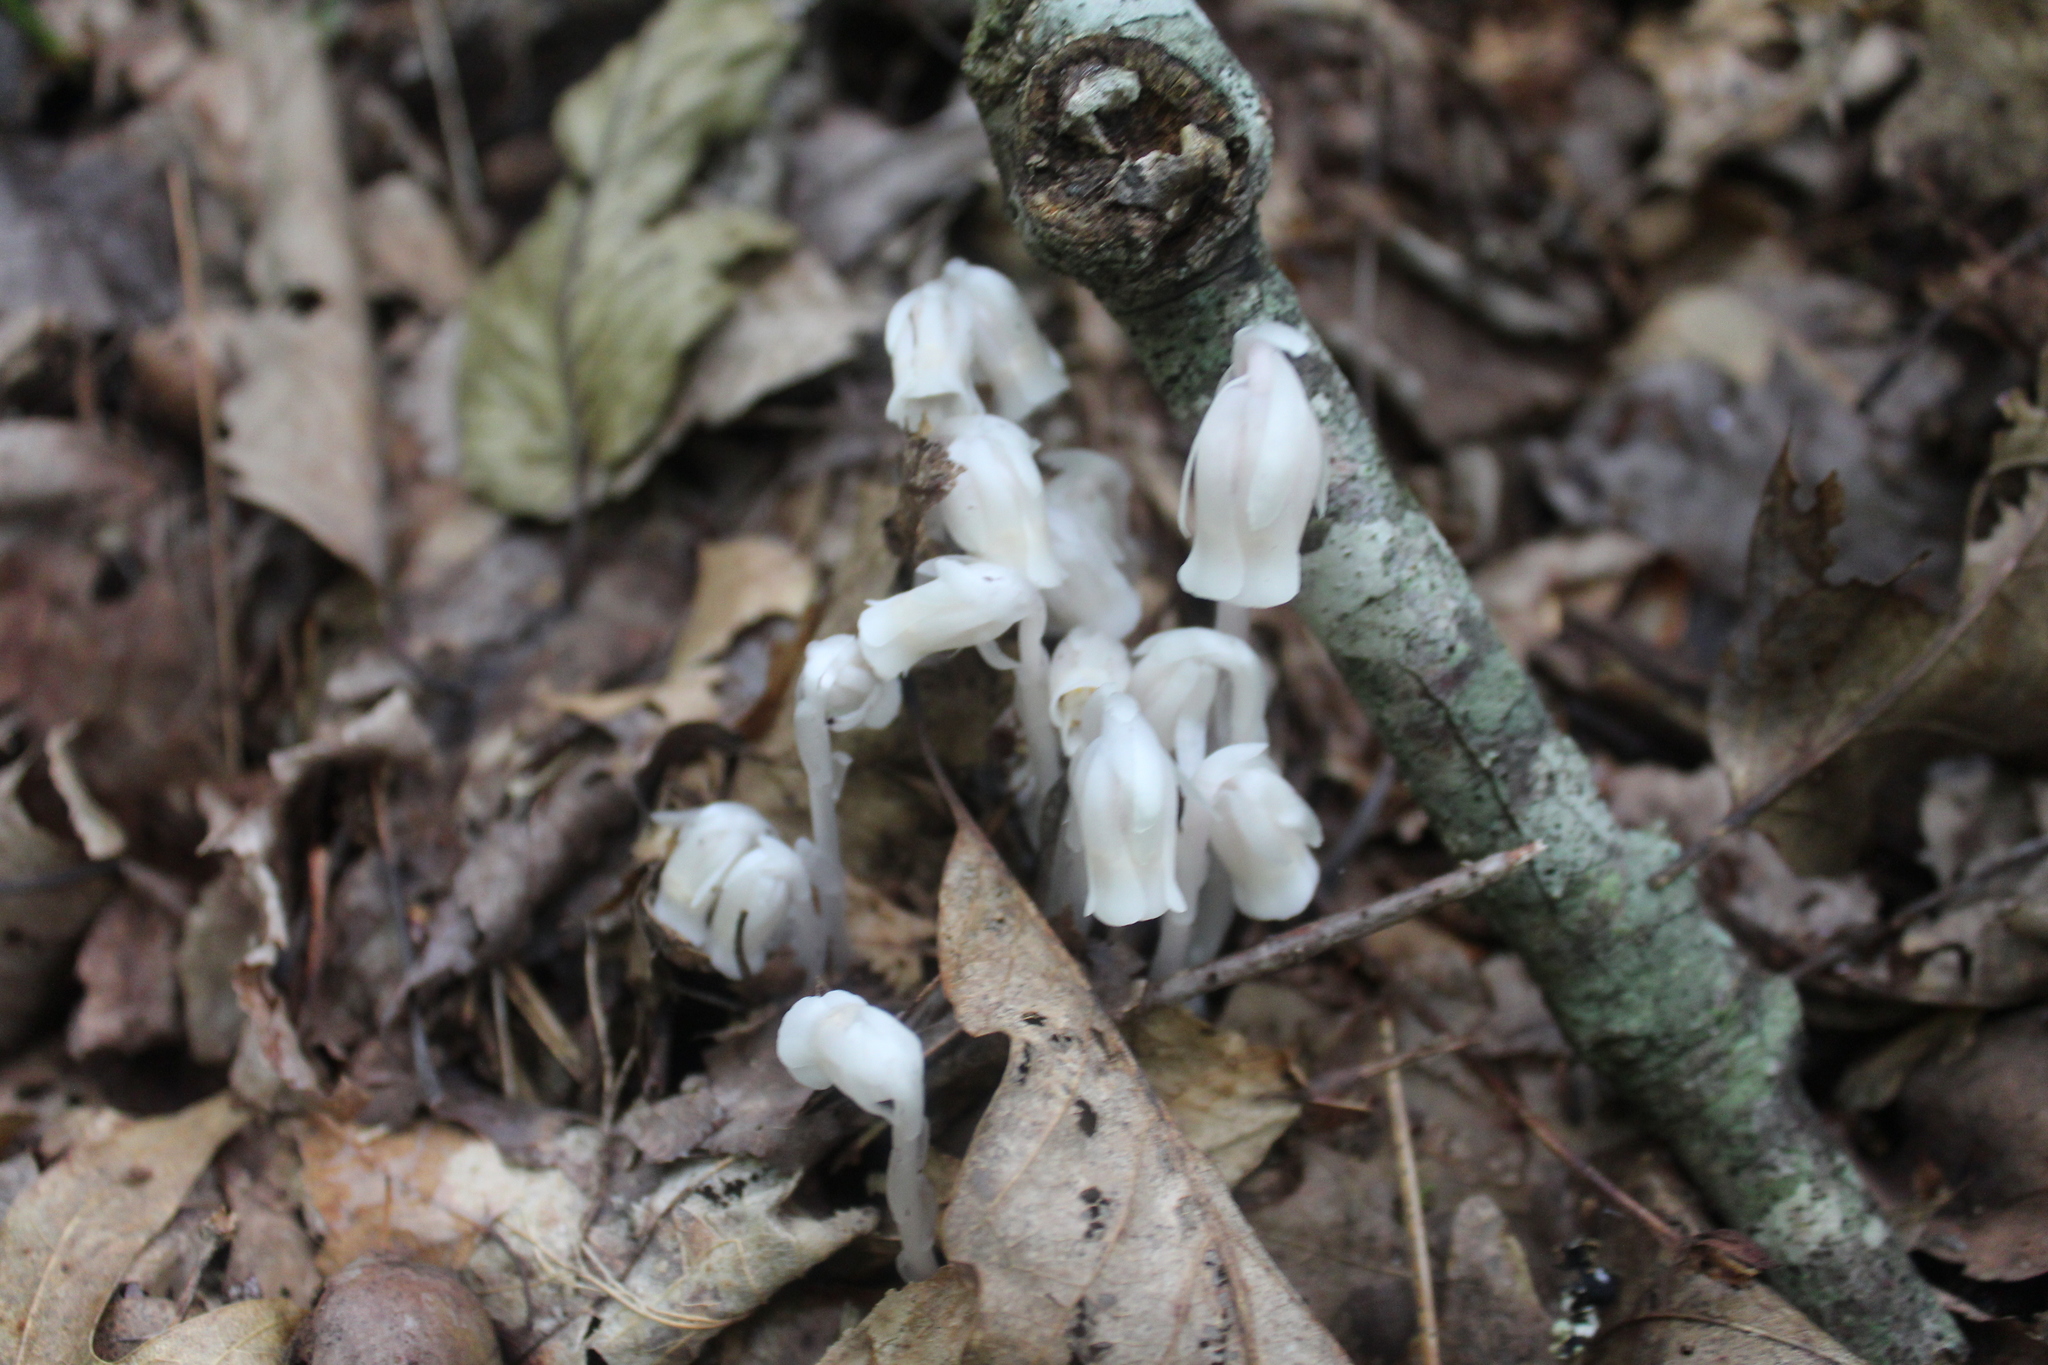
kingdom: Plantae
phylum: Tracheophyta
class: Magnoliopsida
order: Ericales
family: Ericaceae
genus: Monotropa
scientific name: Monotropa uniflora
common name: Convulsion root
